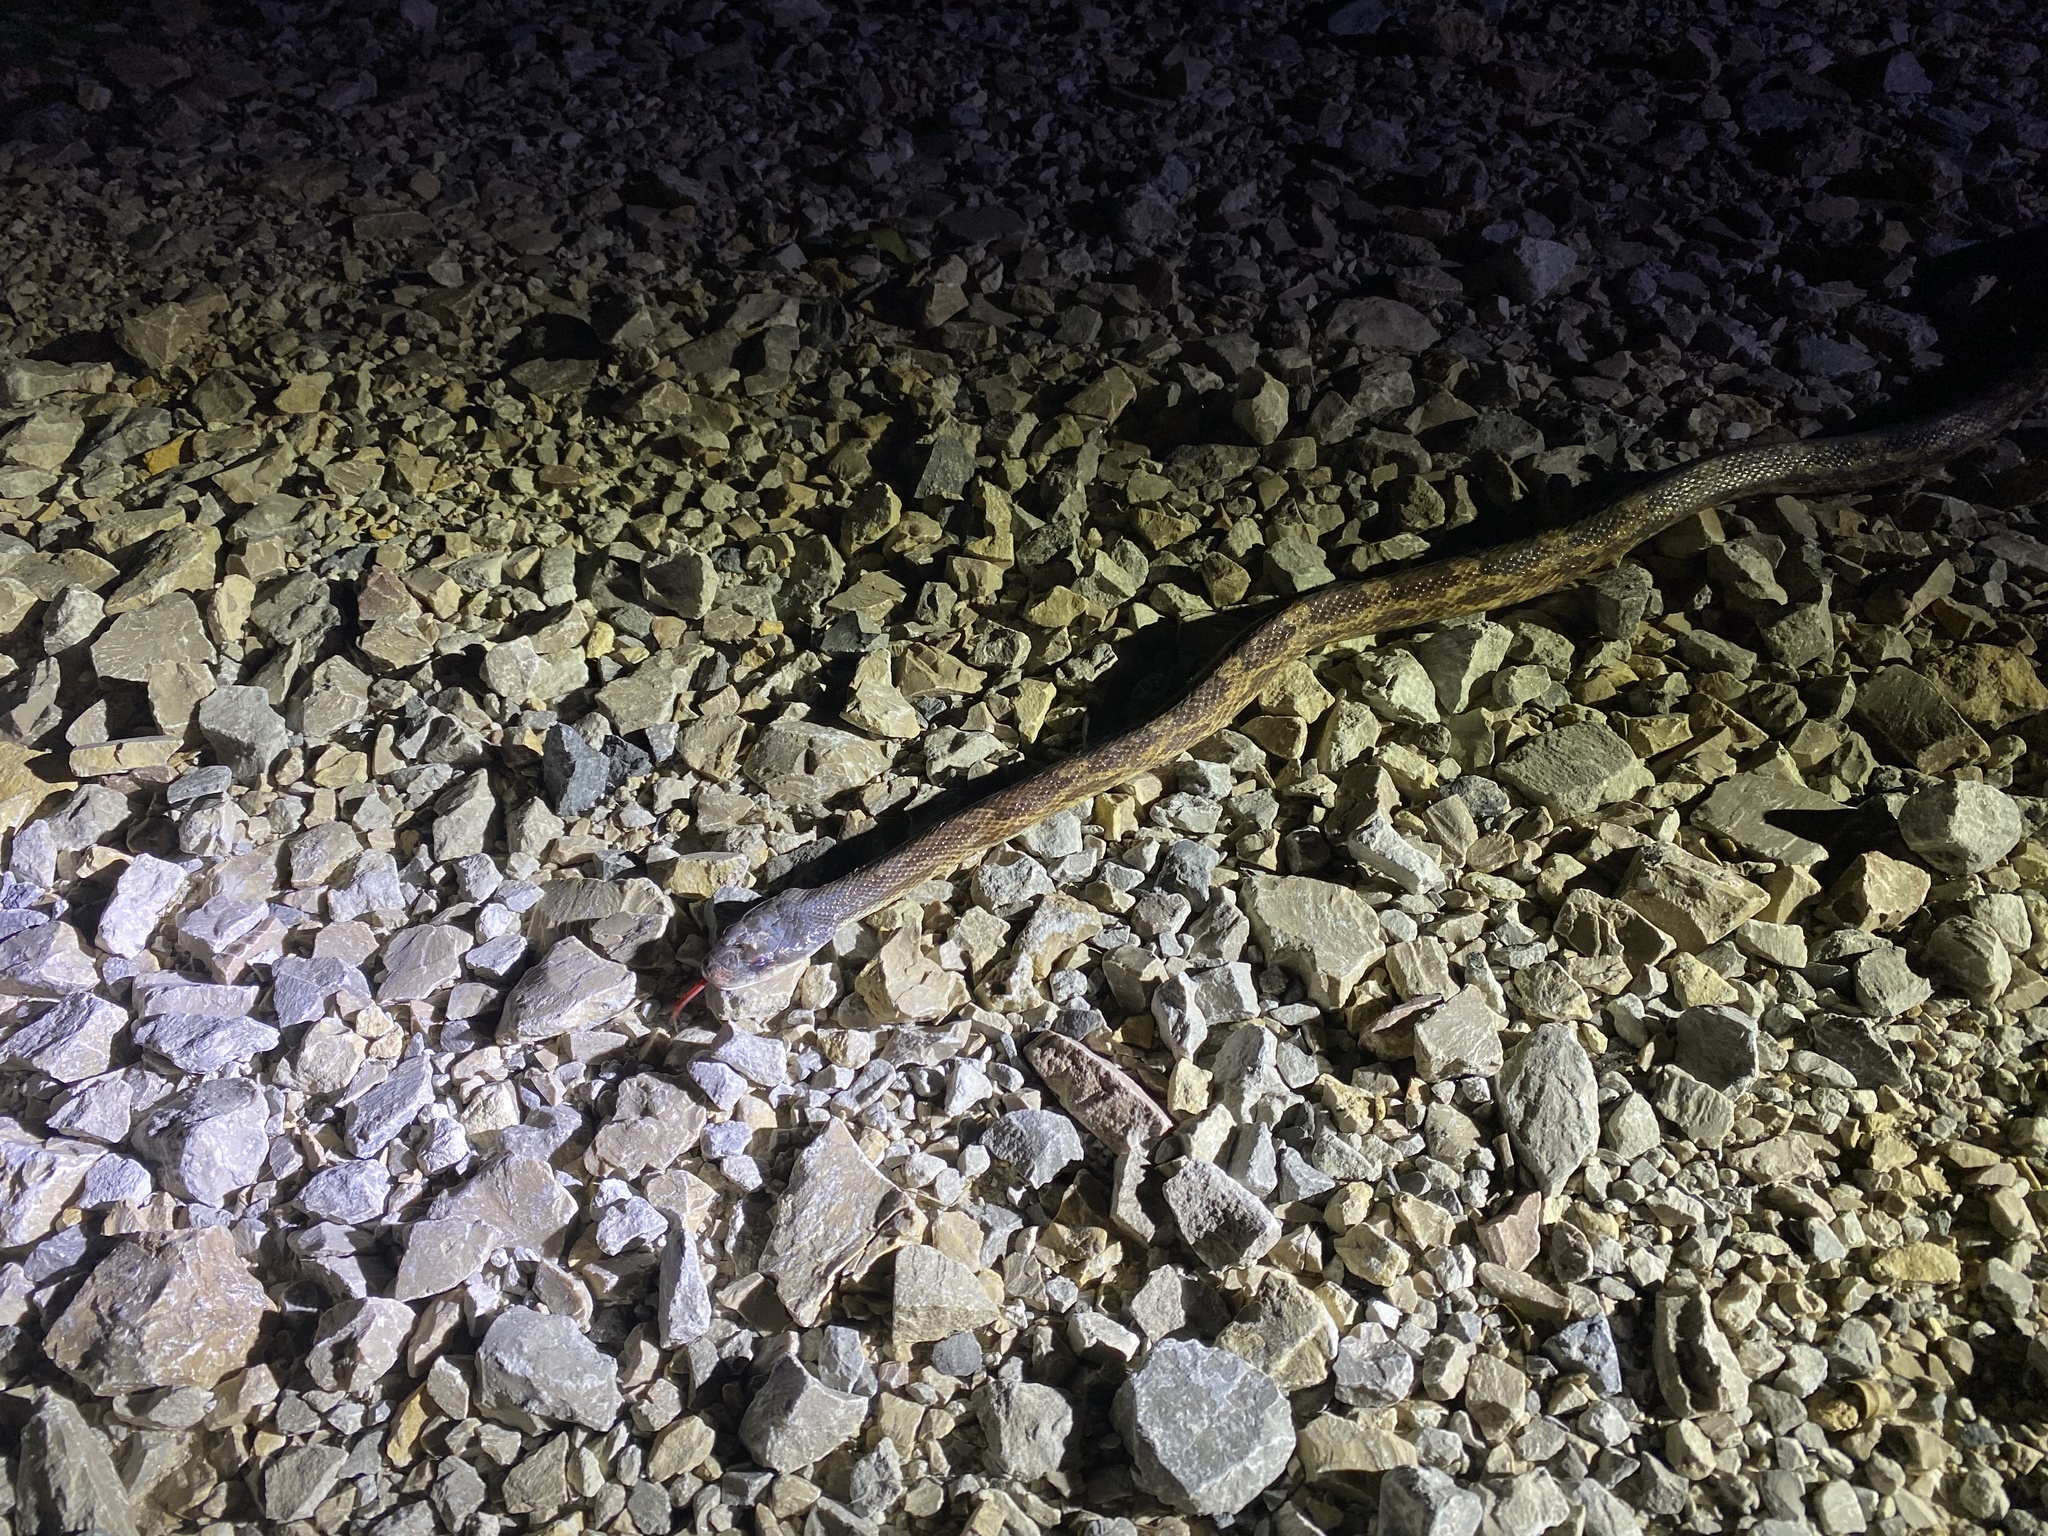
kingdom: Animalia
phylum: Chordata
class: Squamata
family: Colubridae
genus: Pantherophis
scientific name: Pantherophis obsoletus
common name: Black rat snake
